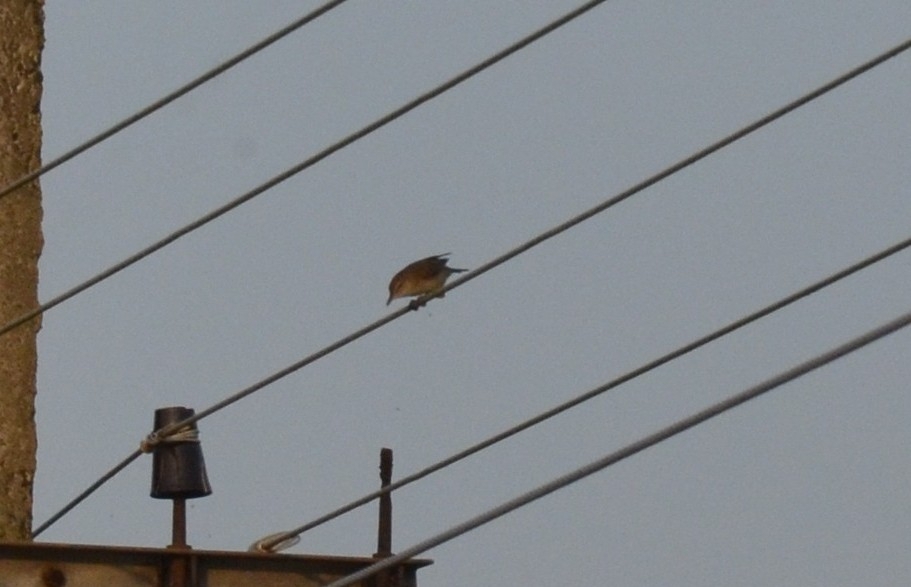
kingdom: Animalia
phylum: Chordata
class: Aves
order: Passeriformes
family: Acrocephalidae
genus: Acrocephalus
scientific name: Acrocephalus stentoreus
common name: Clamorous reed warbler
